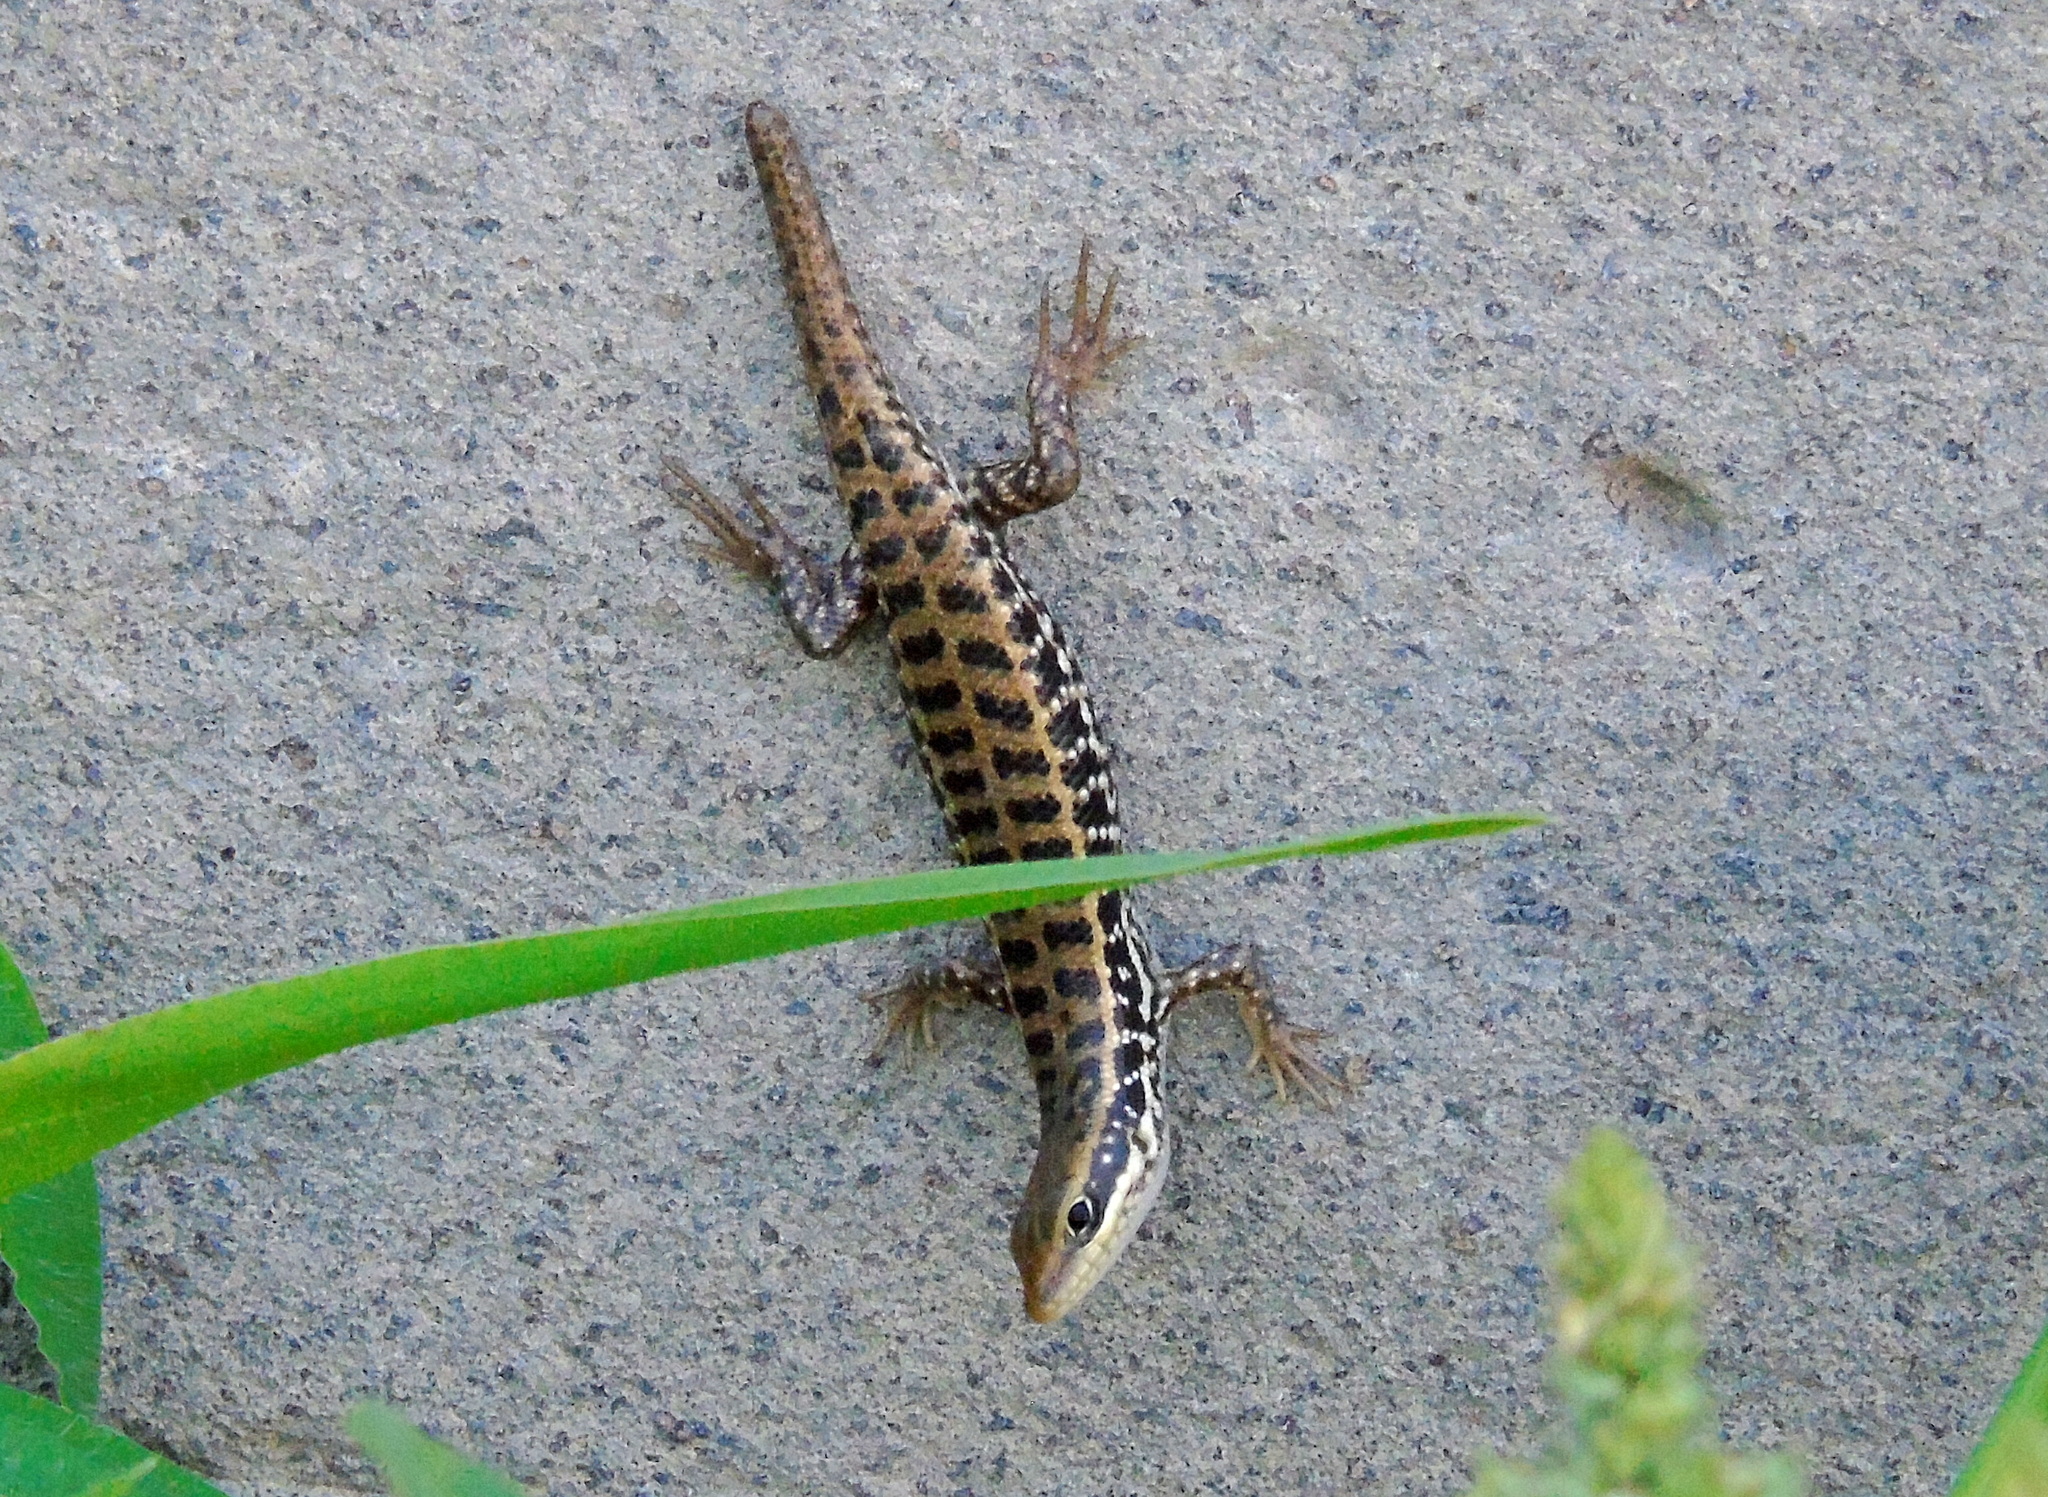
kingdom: Animalia
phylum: Chordata
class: Squamata
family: Scincidae
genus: Heremites
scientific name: Heremites auratus
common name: Golden grass mabuya
